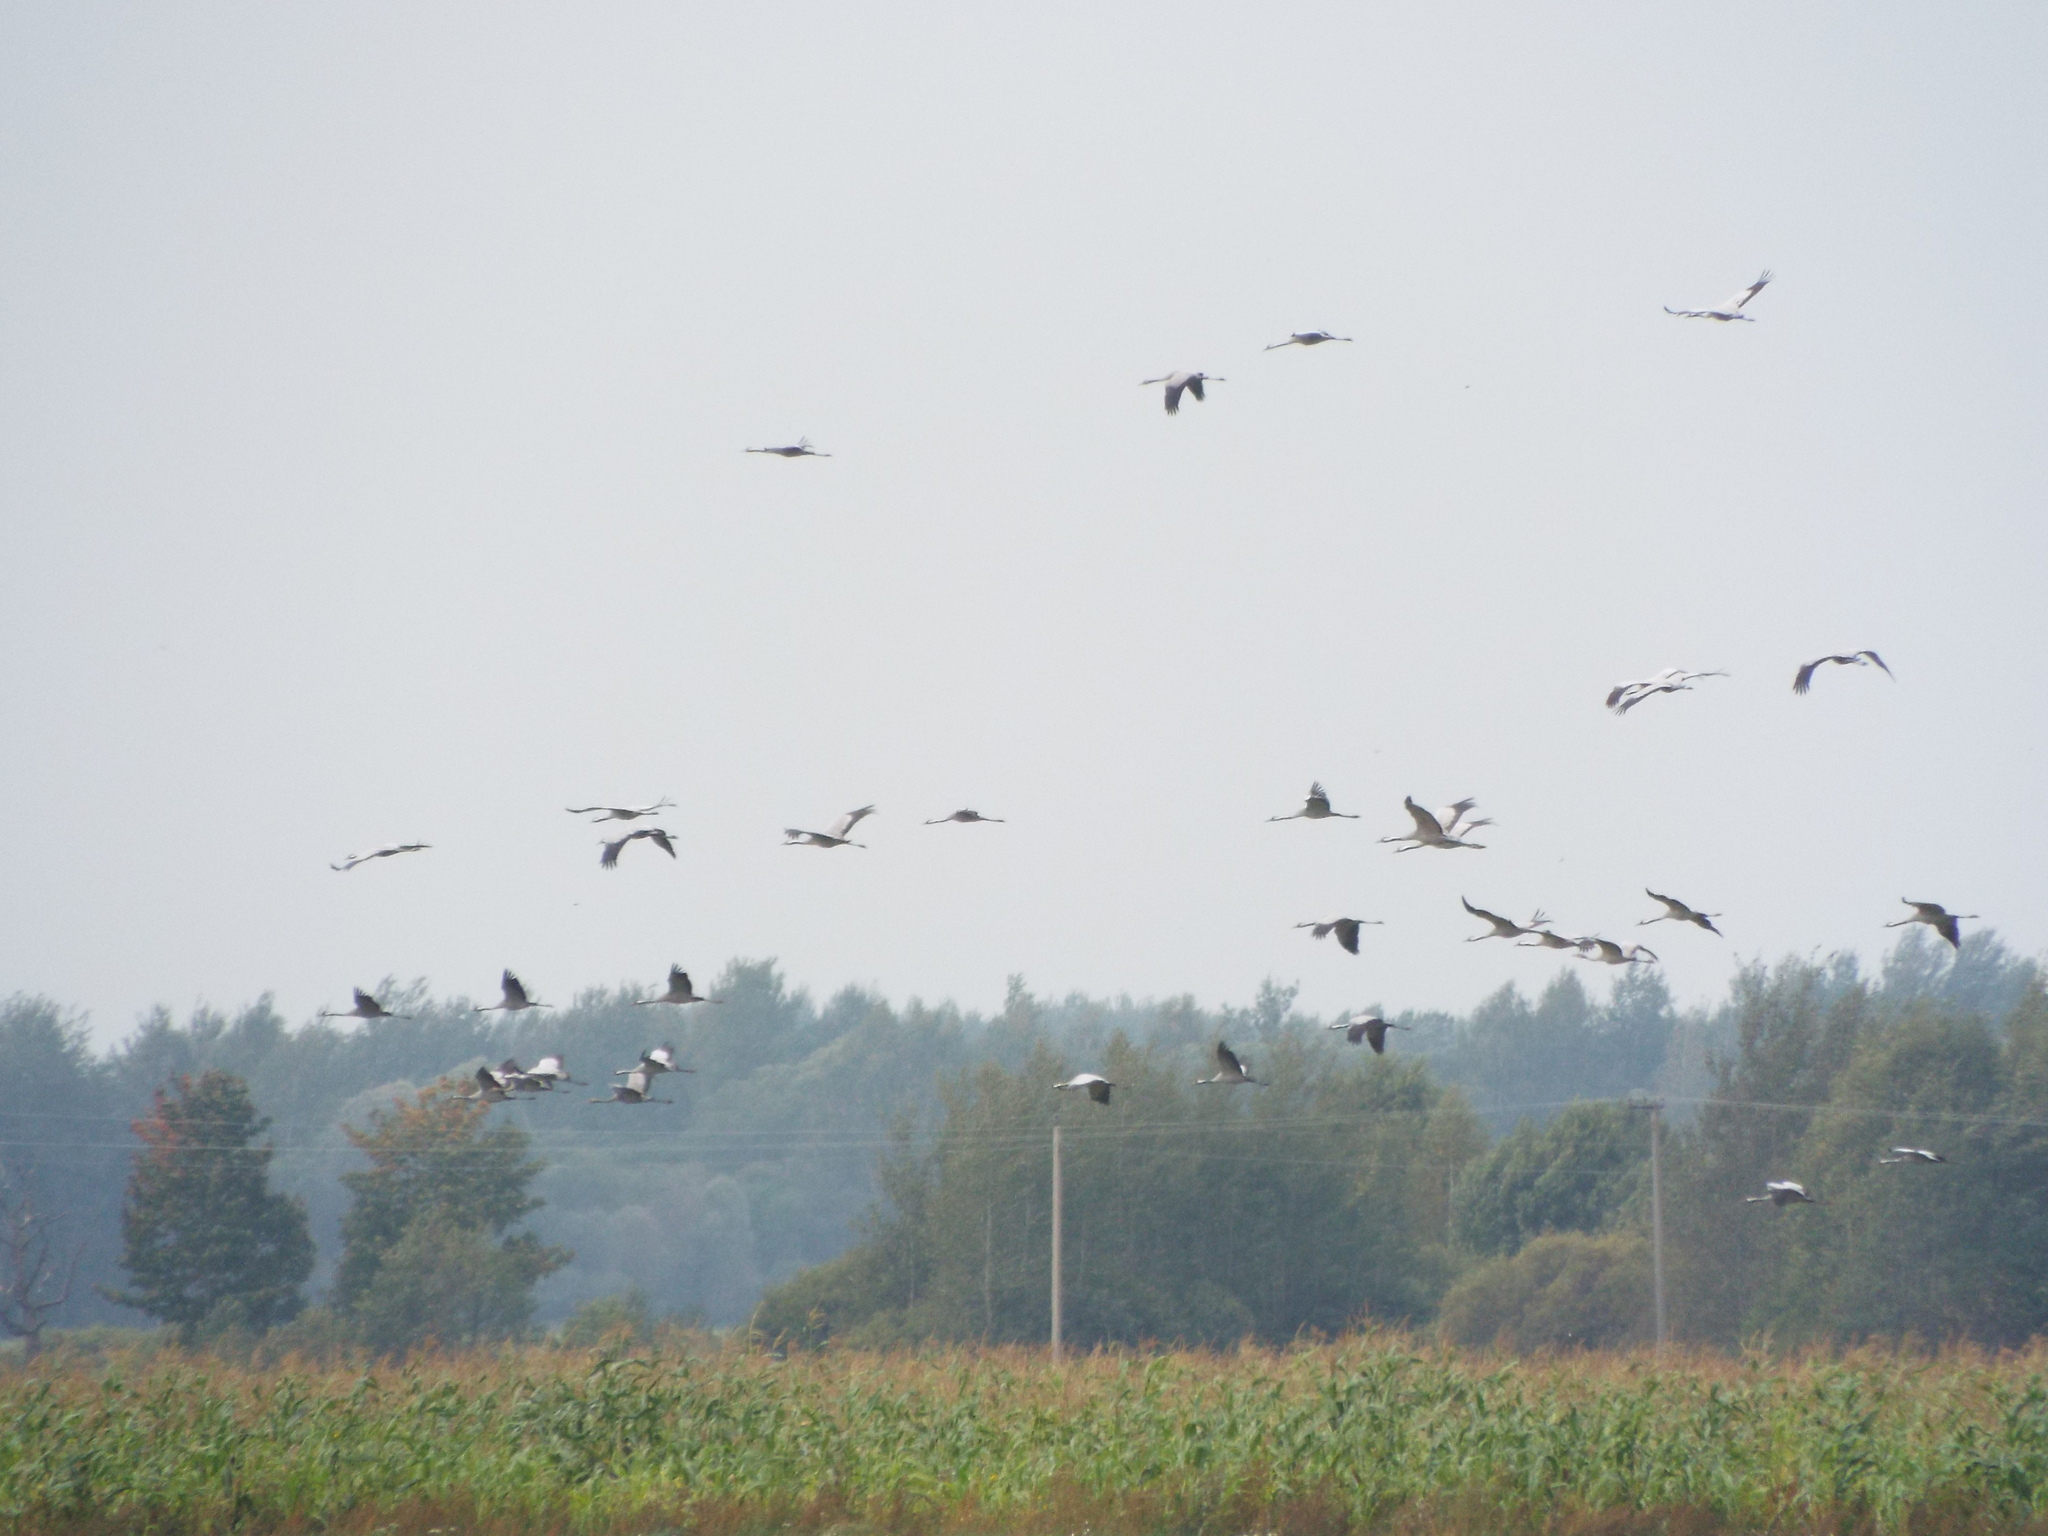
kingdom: Animalia
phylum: Chordata
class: Aves
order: Gruiformes
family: Gruidae
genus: Grus
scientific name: Grus grus
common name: Common crane
